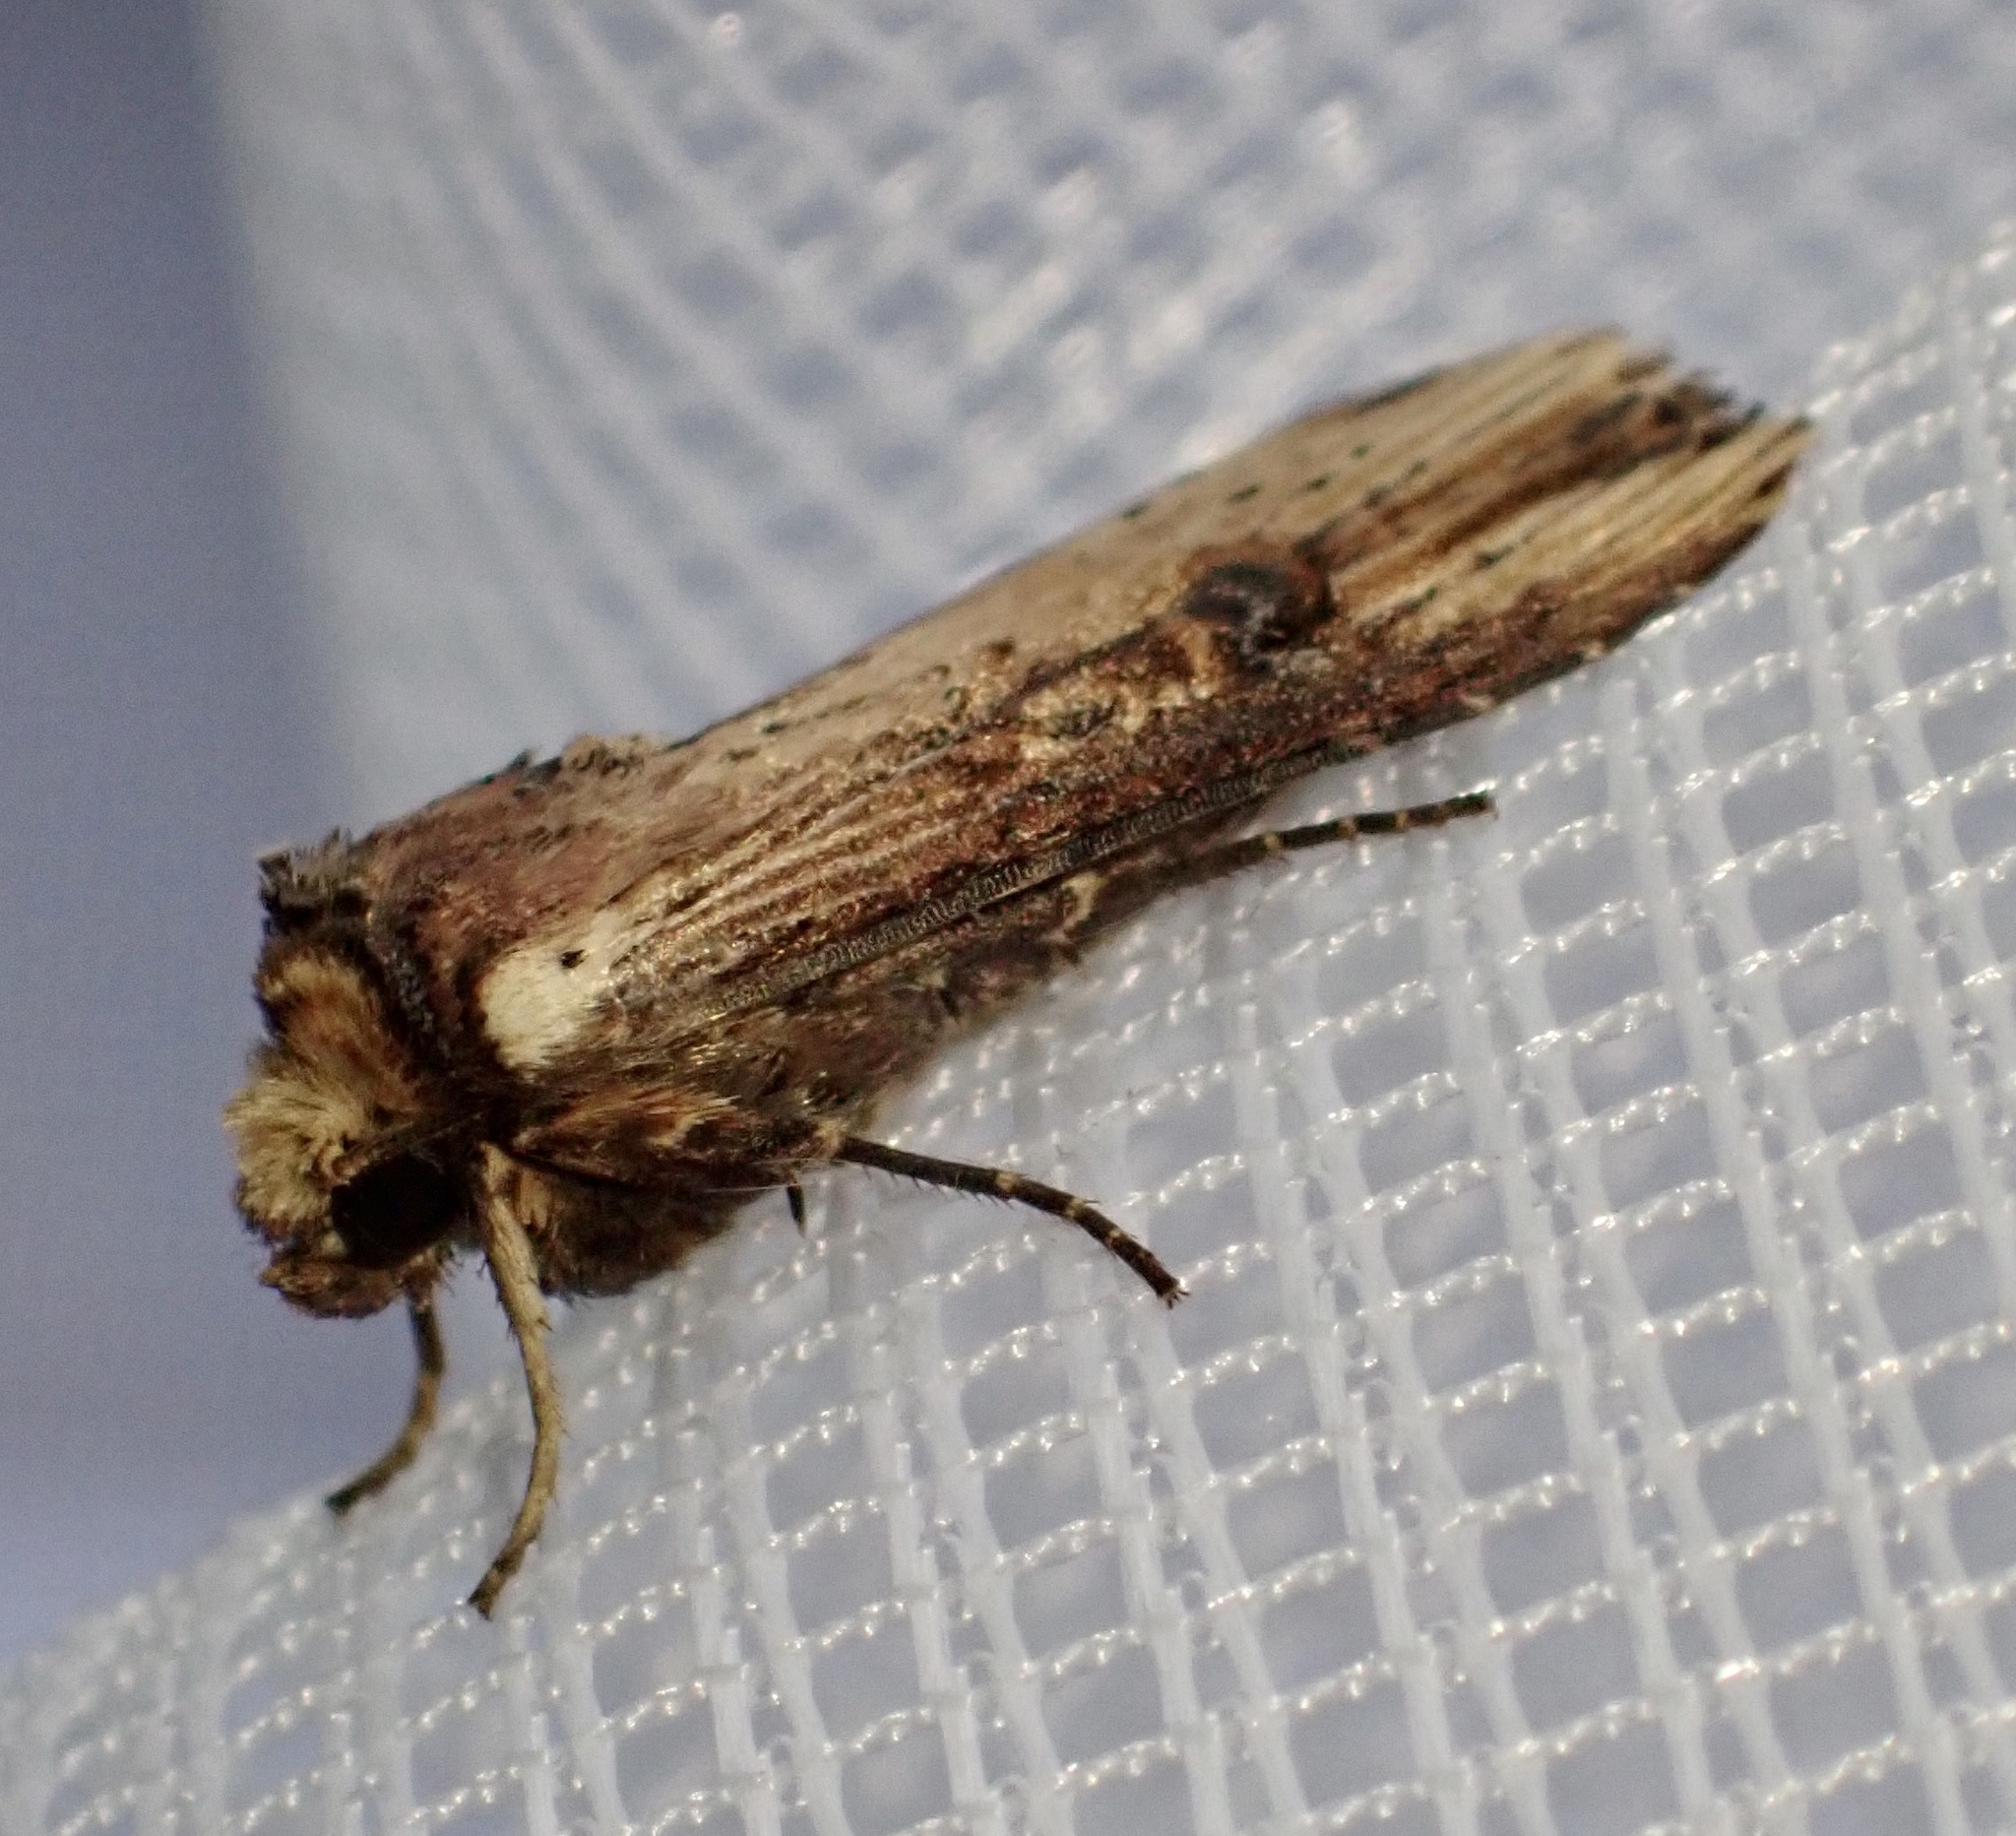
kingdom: Animalia
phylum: Arthropoda
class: Insecta
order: Lepidoptera
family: Noctuidae
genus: Axylia
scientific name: Axylia putris
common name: Flame
